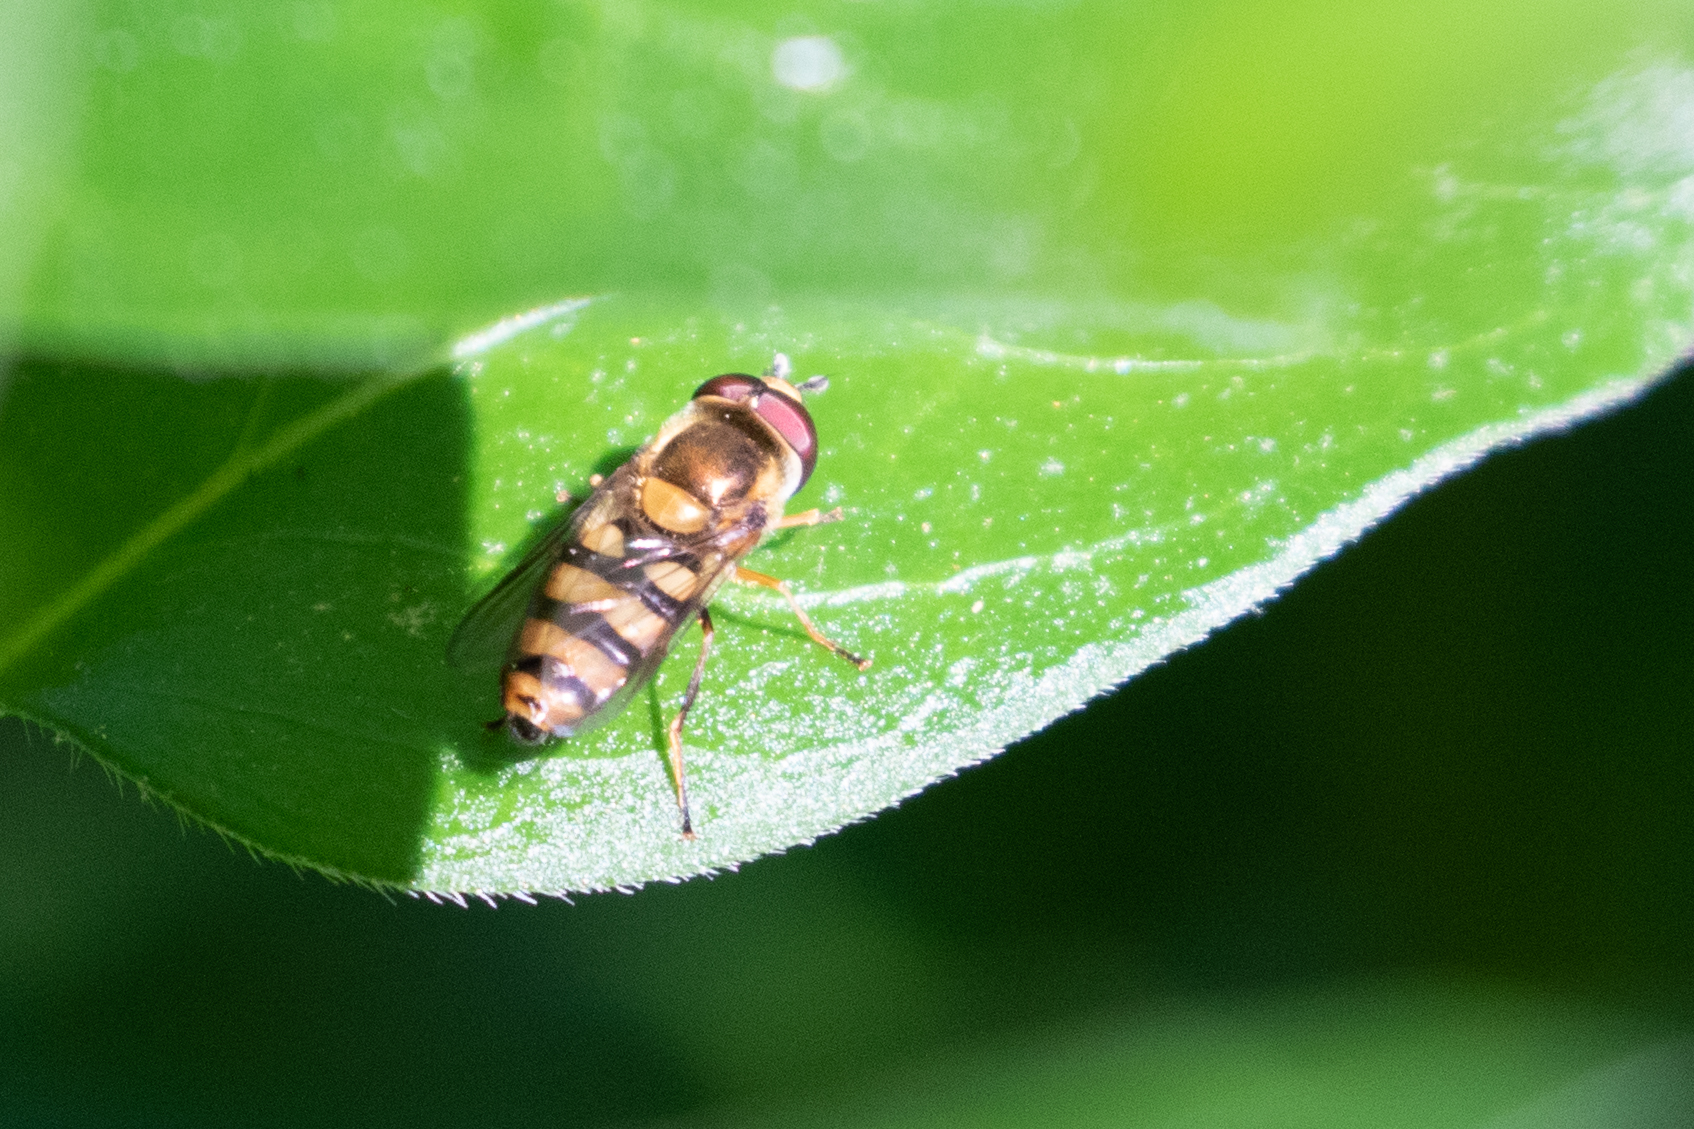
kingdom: Animalia
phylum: Arthropoda
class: Insecta
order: Diptera
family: Syrphidae
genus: Eupeodes
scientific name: Eupeodes
